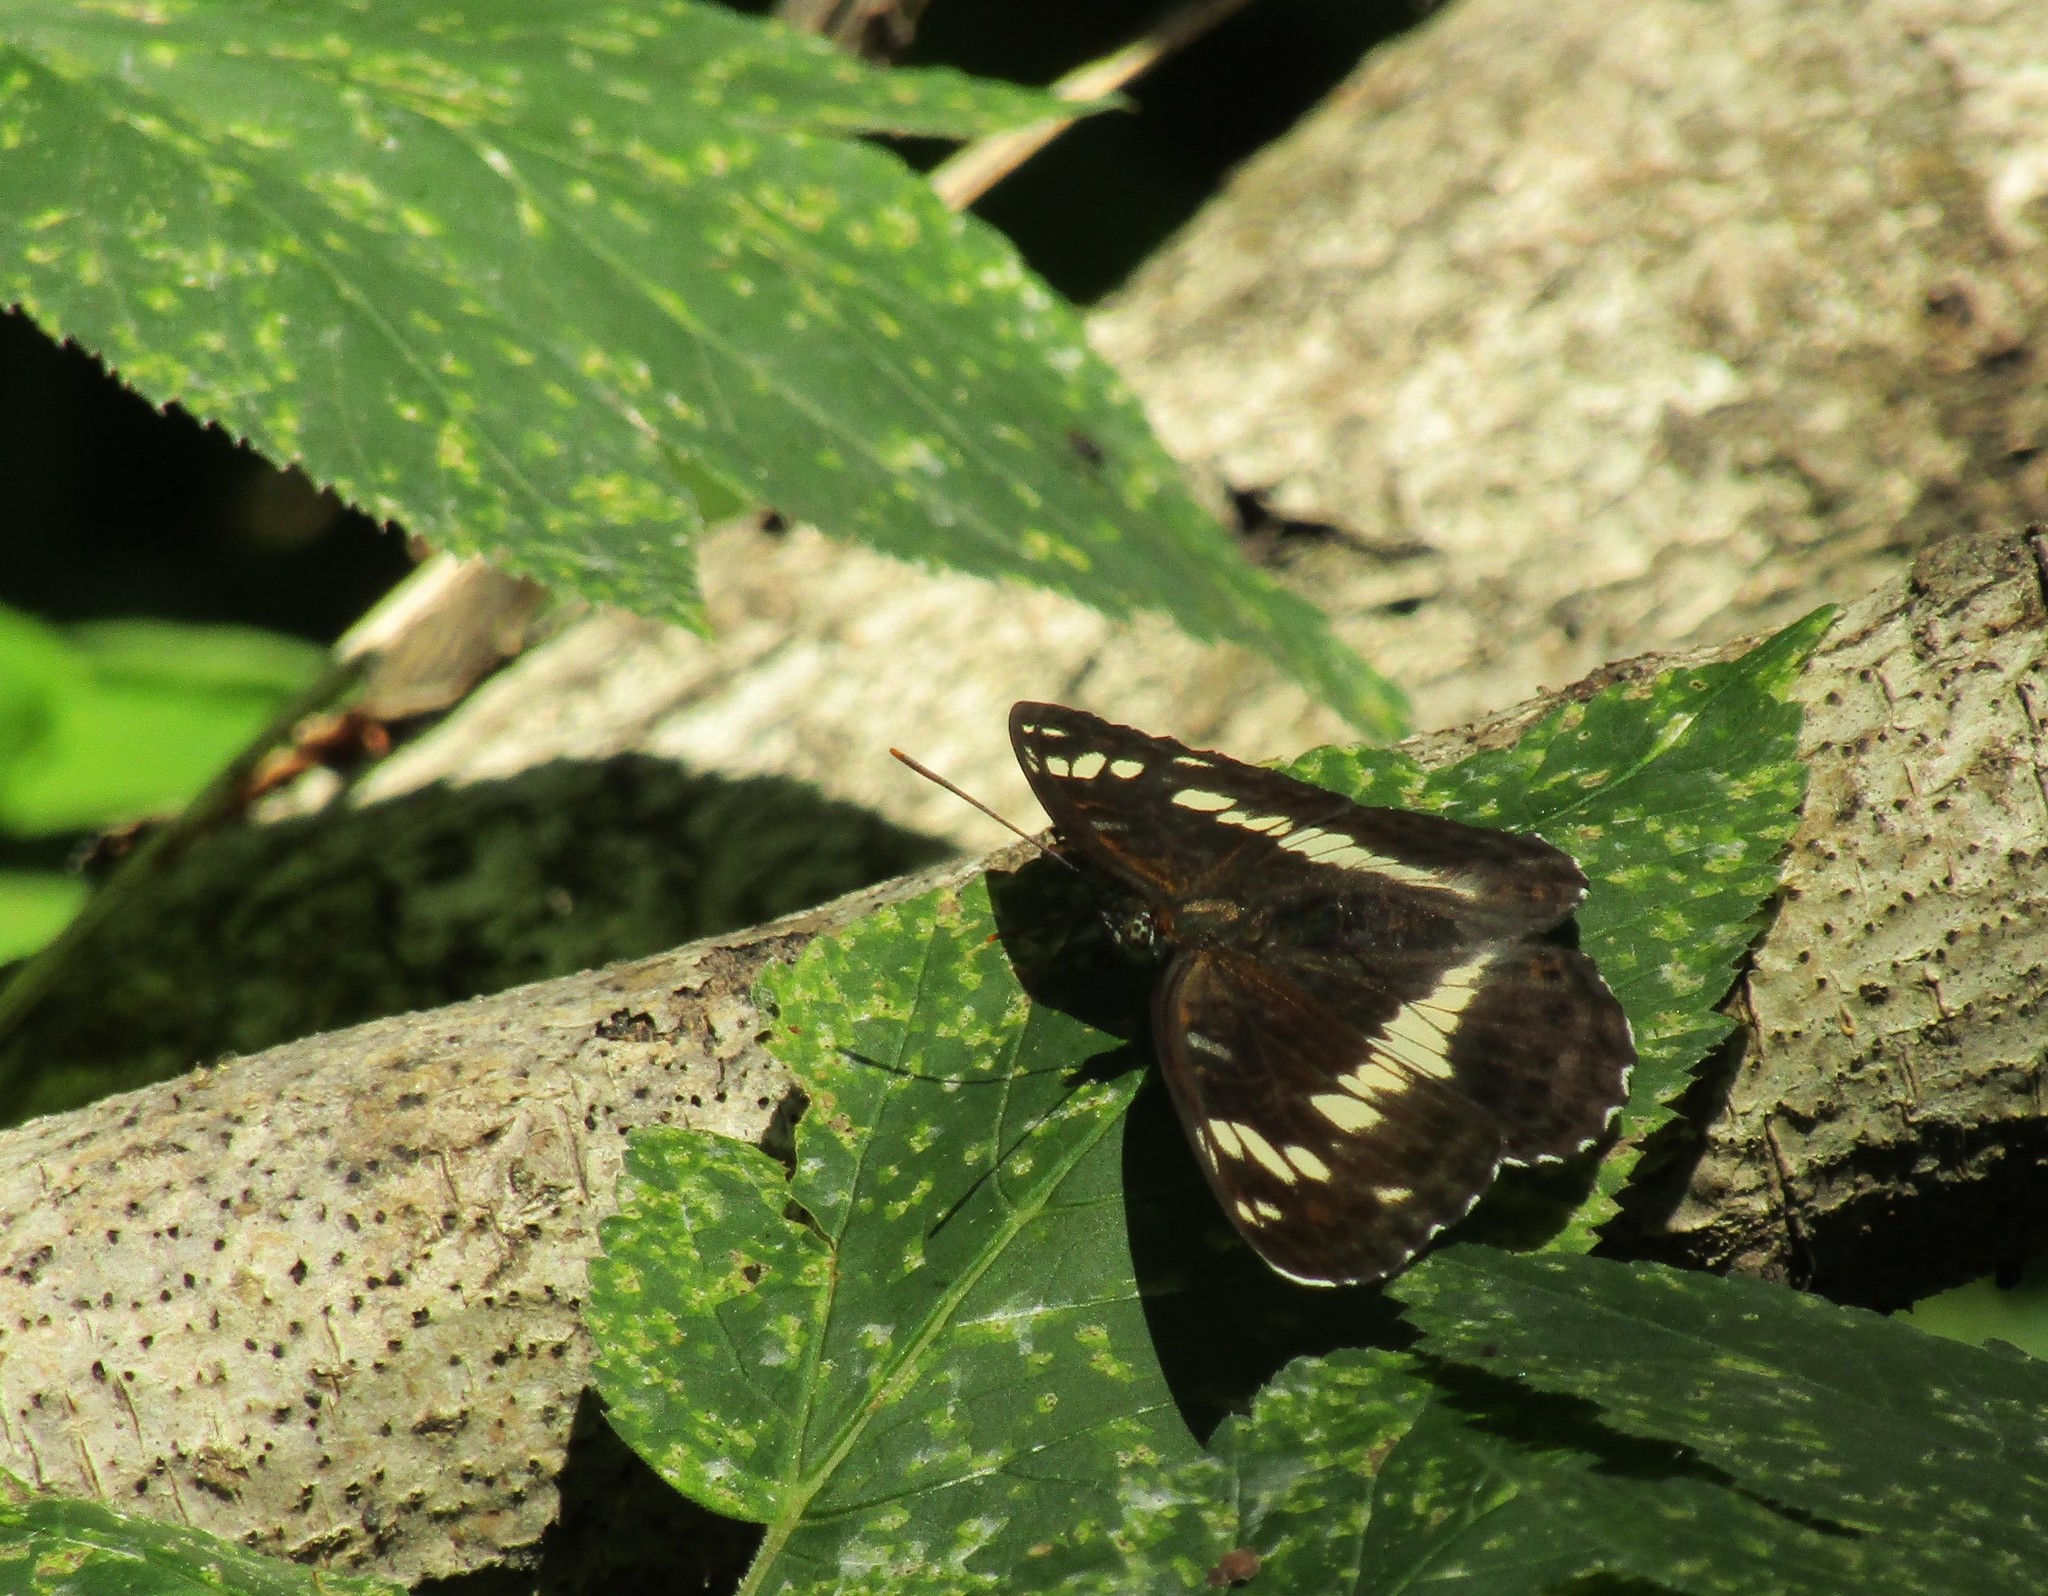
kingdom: Animalia
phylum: Arthropoda
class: Insecta
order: Lepidoptera
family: Nymphalidae
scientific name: Nymphalidae
